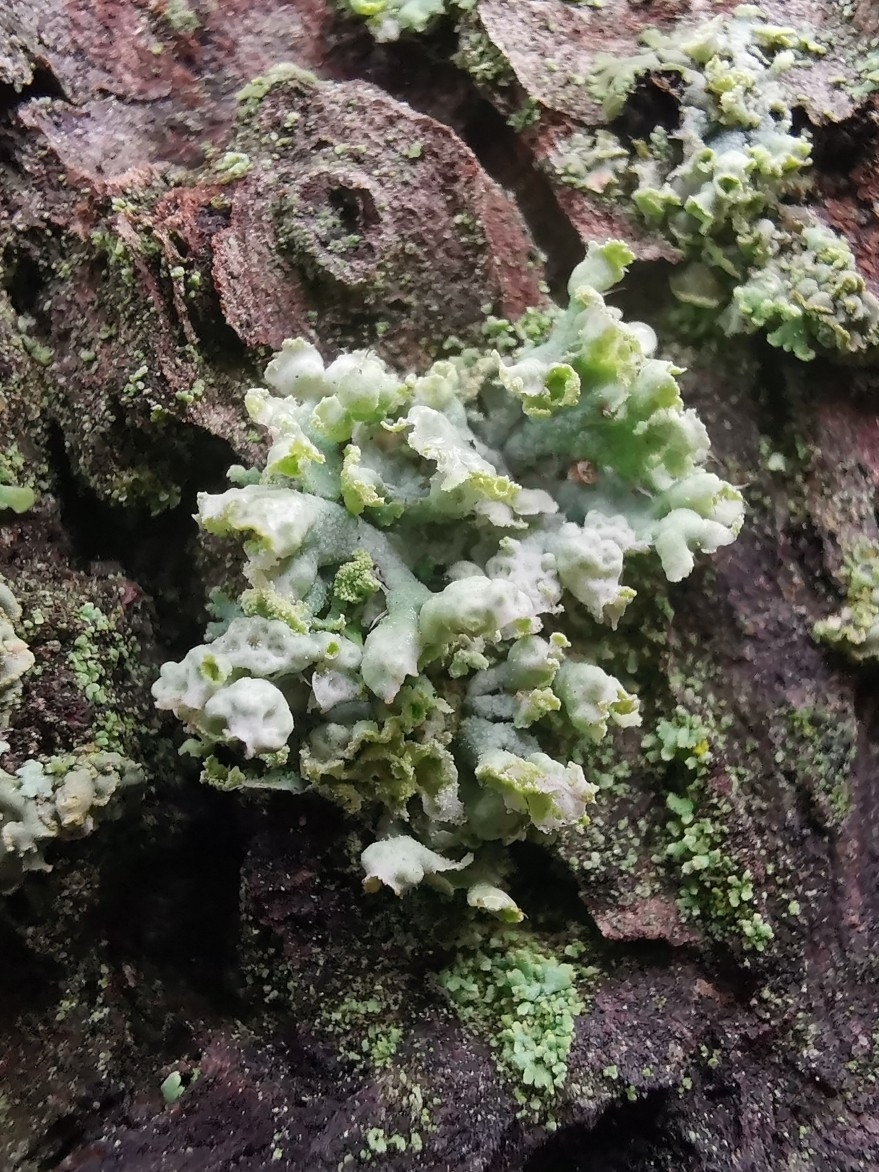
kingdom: Fungi
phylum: Ascomycota
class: Lecanoromycetes
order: Caliciales
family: Physciaceae
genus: Physcia
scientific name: Physcia adscendens
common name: Hooded rosette lichen
